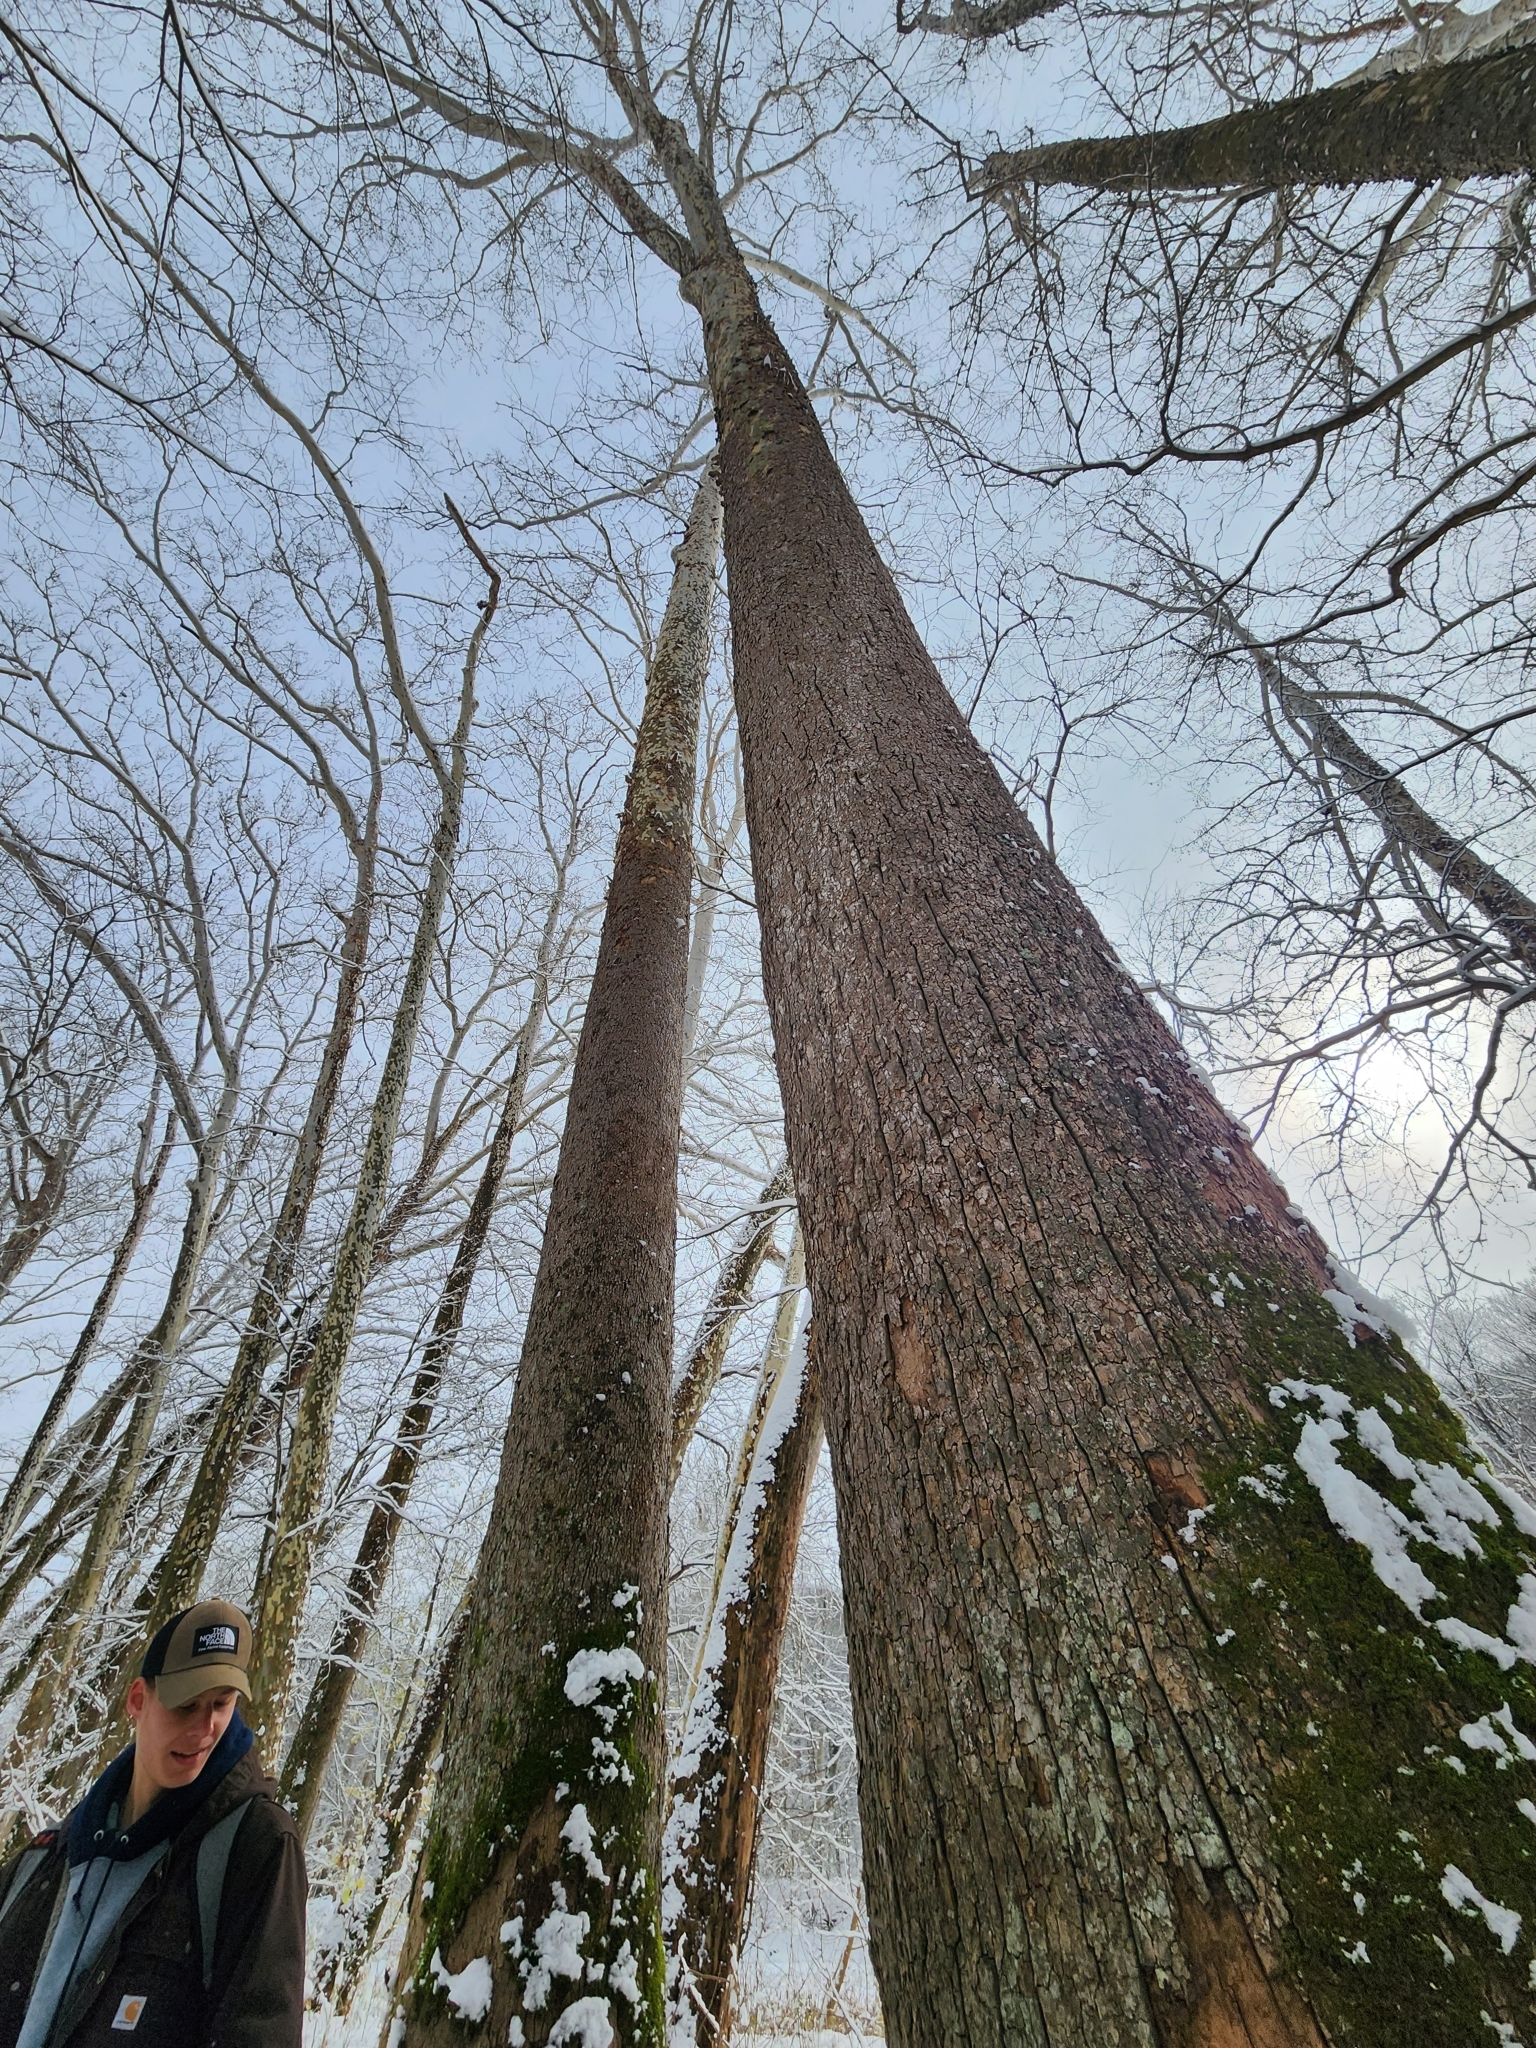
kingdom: Plantae
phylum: Tracheophyta
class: Magnoliopsida
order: Proteales
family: Platanaceae
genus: Platanus
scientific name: Platanus occidentalis
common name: American sycamore
